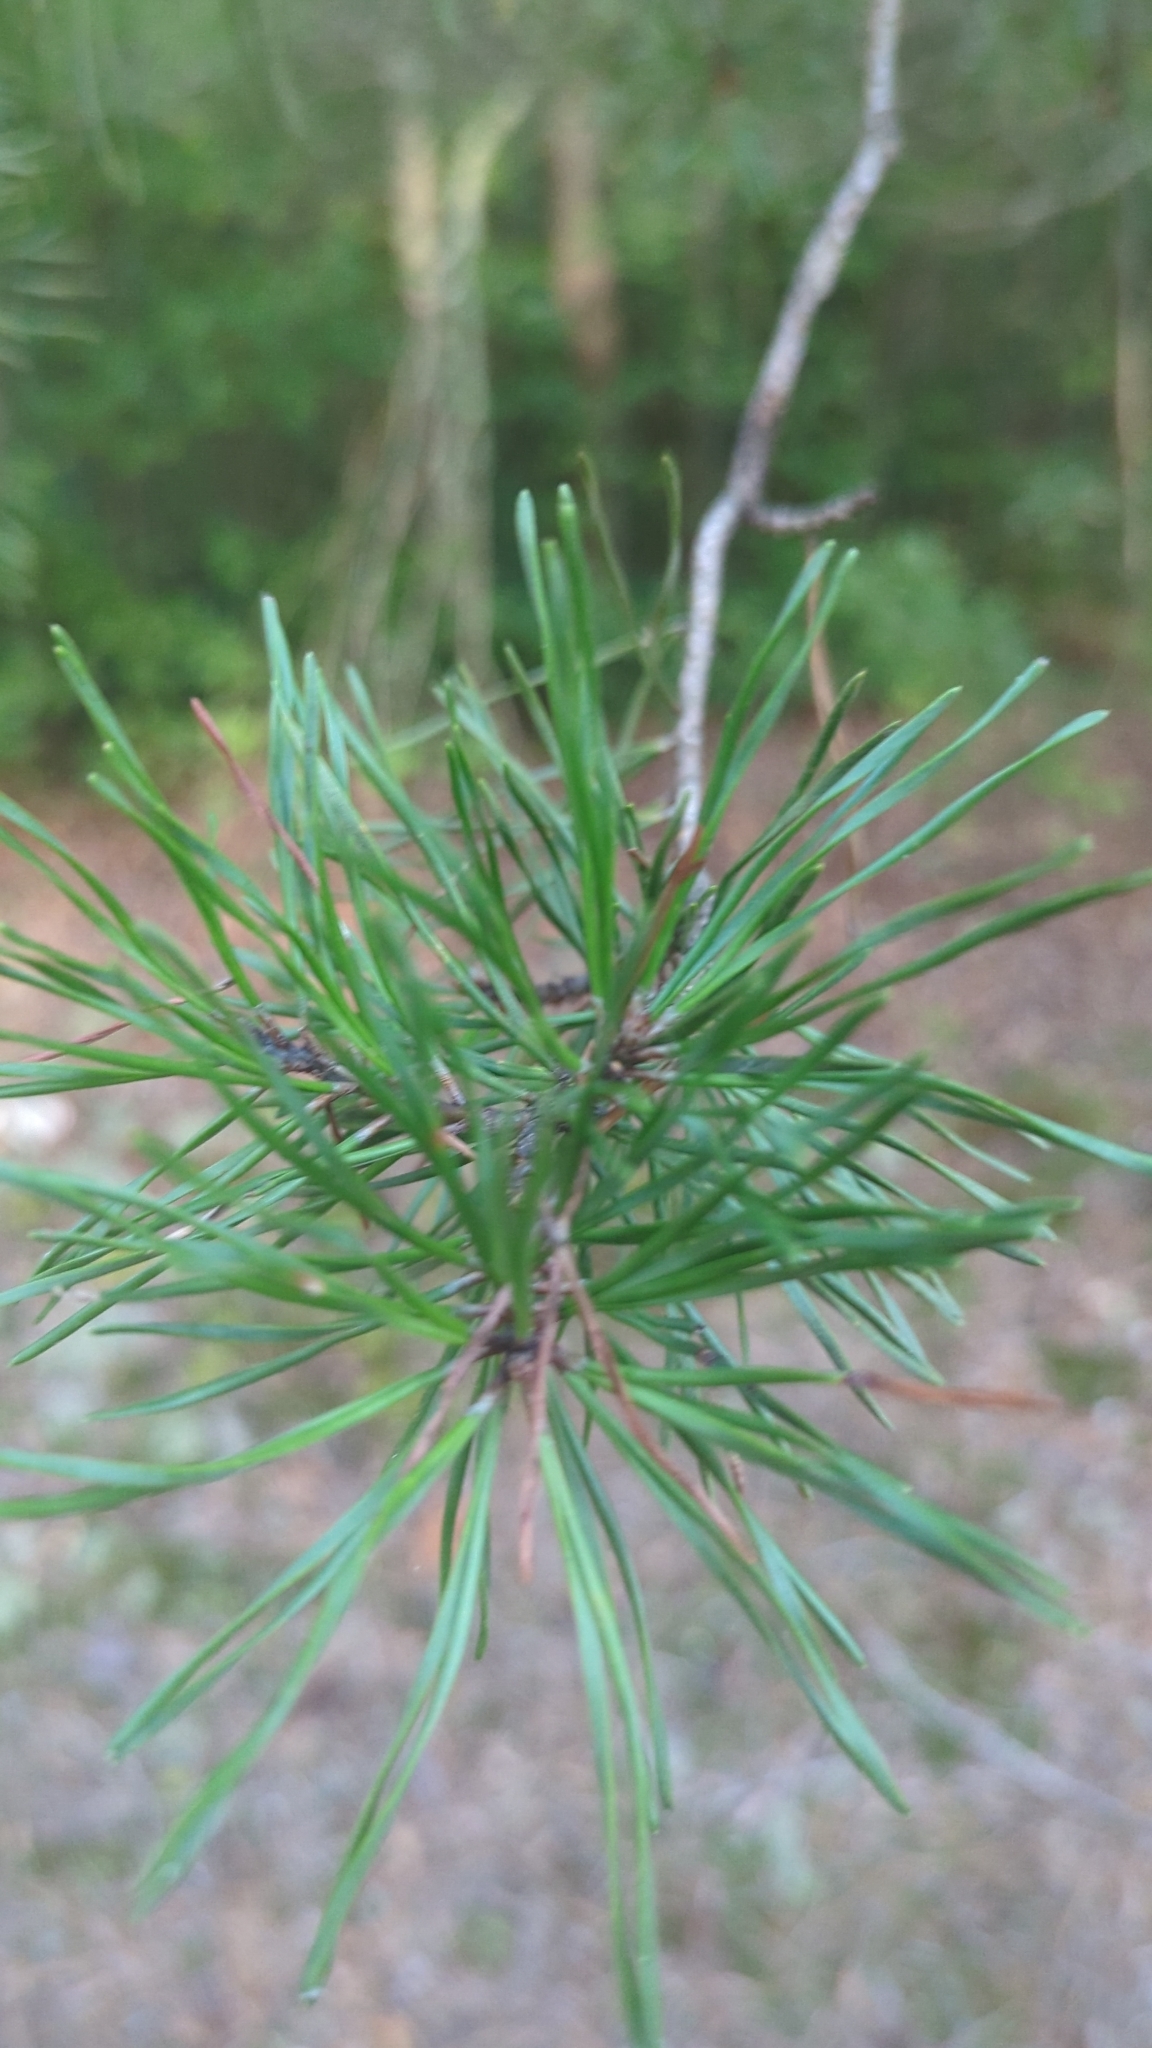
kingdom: Plantae
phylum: Tracheophyta
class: Pinopsida
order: Pinales
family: Pinaceae
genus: Pinus
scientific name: Pinus virginiana
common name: Scrub pine
